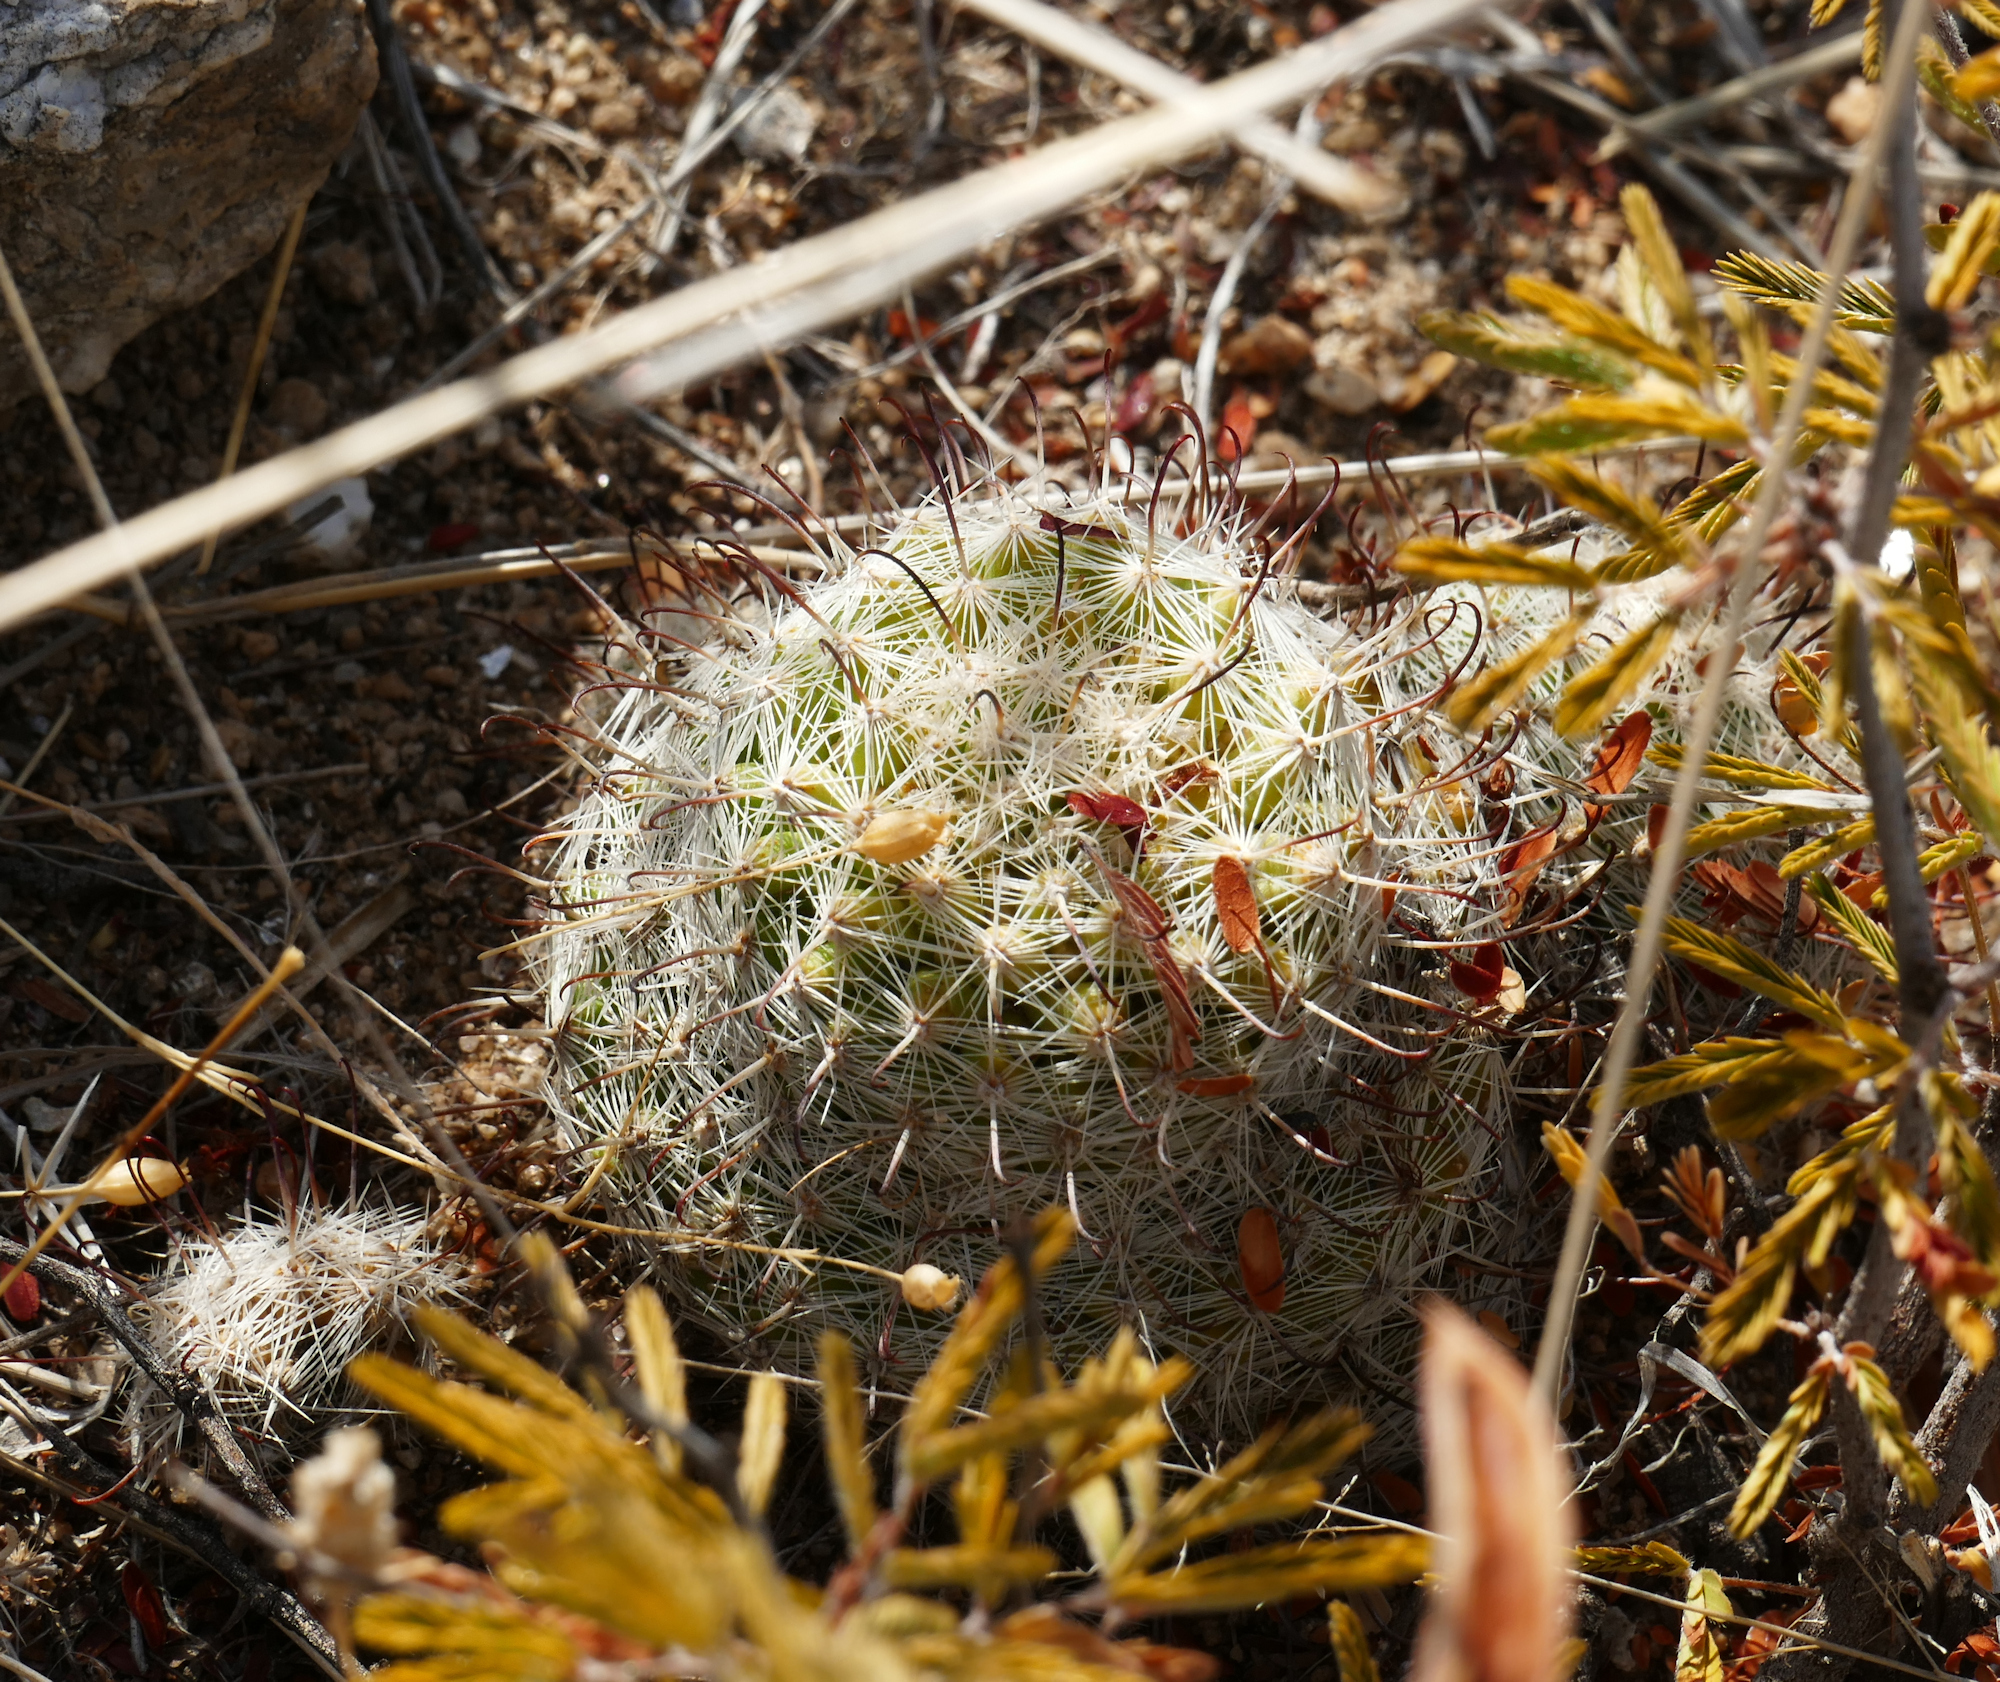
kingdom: Plantae
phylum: Tracheophyta
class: Magnoliopsida
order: Caryophyllales
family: Cactaceae
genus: Cochemiea
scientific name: Cochemiea grahamii
